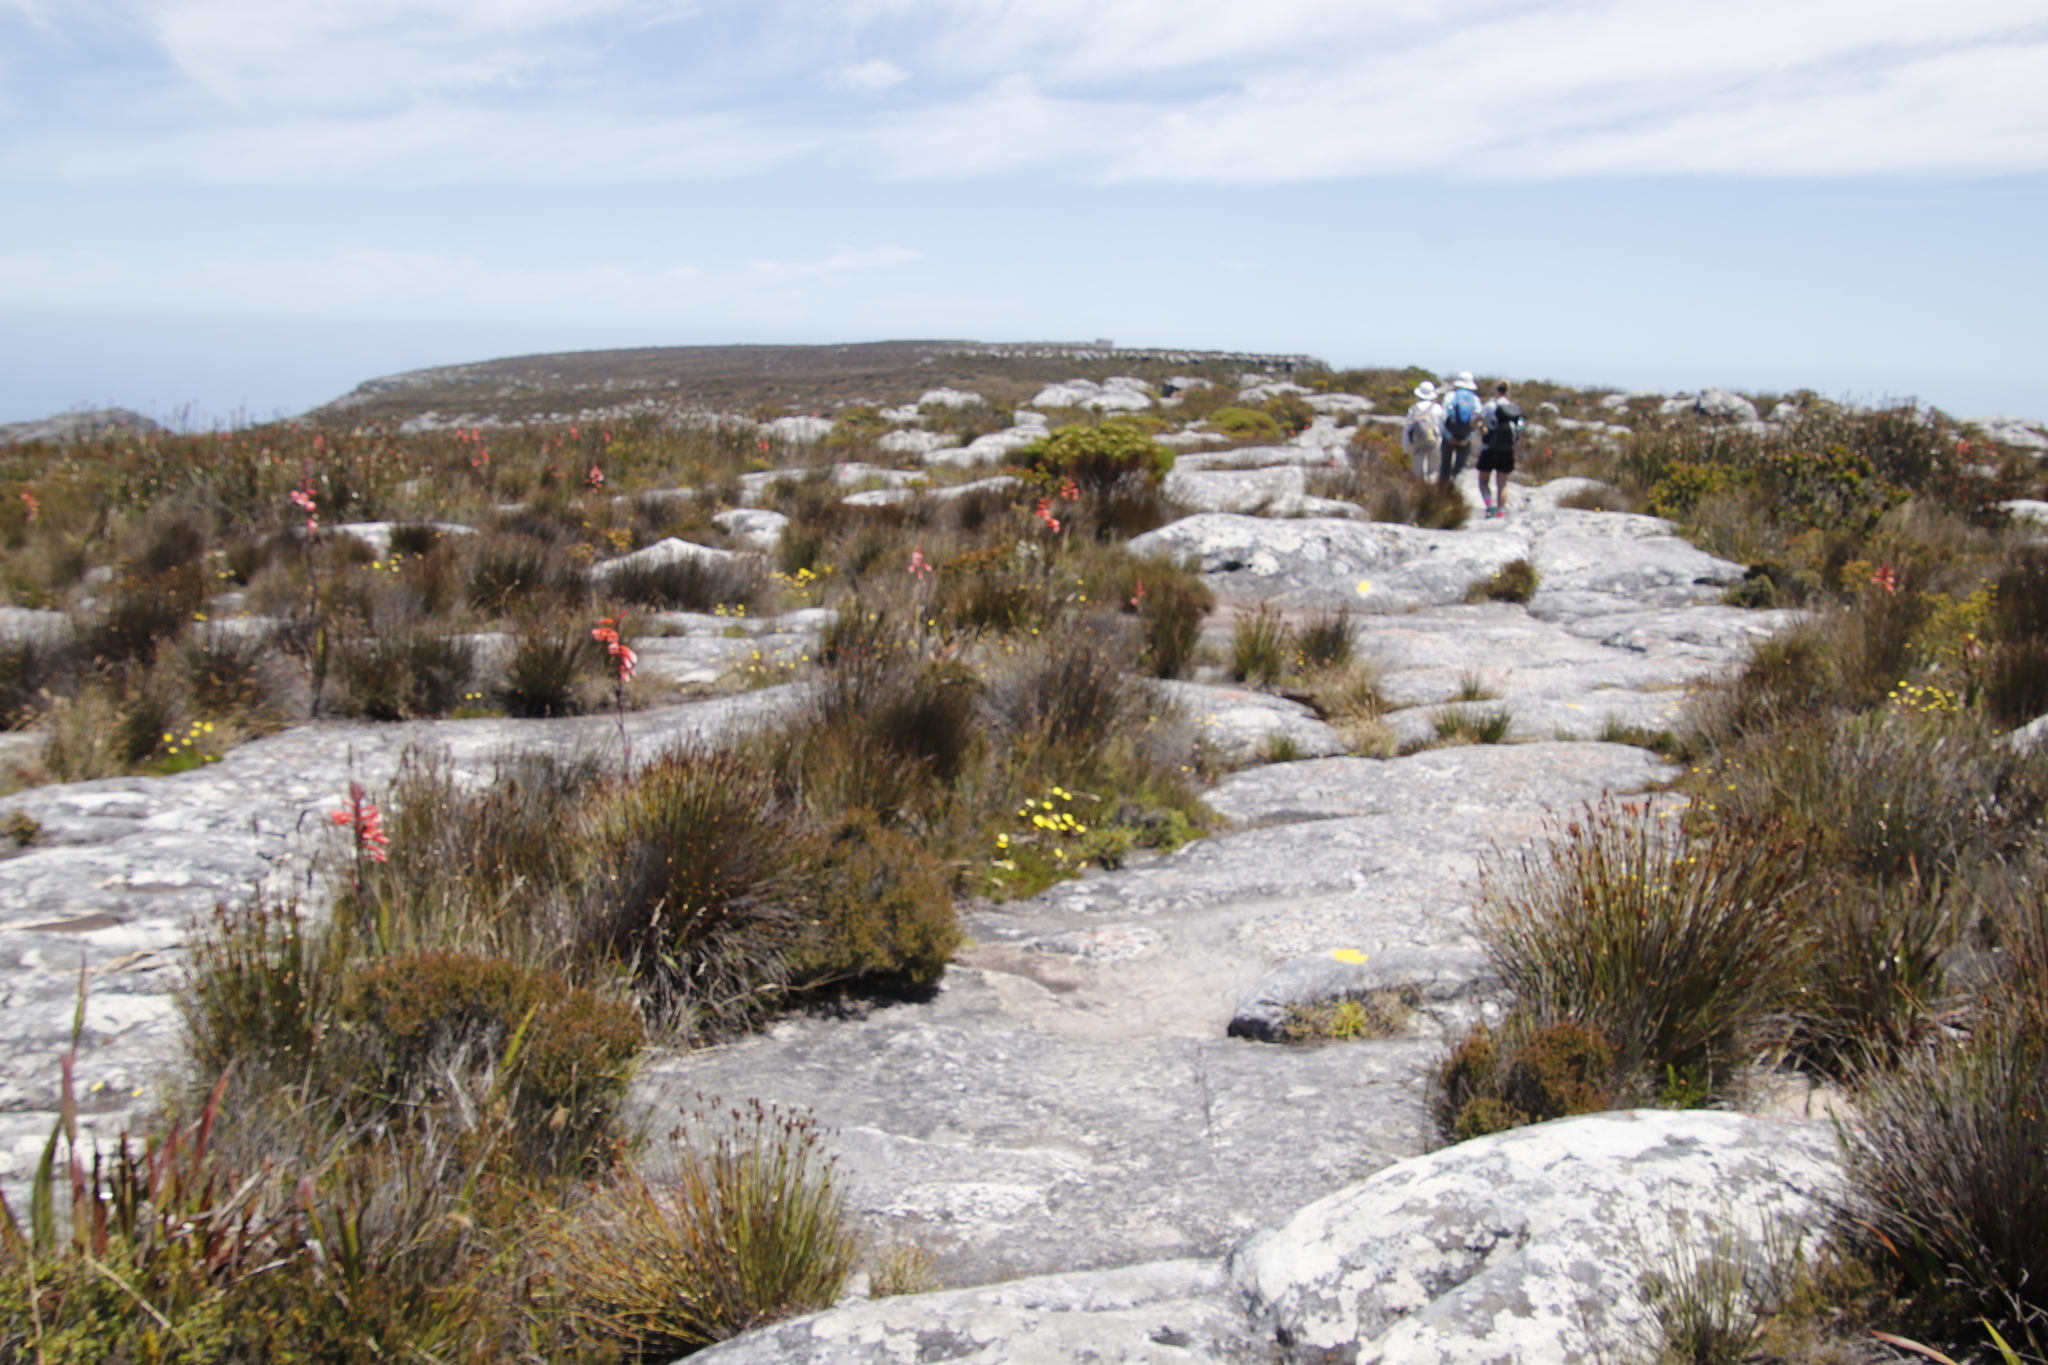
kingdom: Plantae
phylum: Tracheophyta
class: Magnoliopsida
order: Asterales
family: Asteraceae
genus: Ursinia
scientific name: Ursinia nudicaulis
